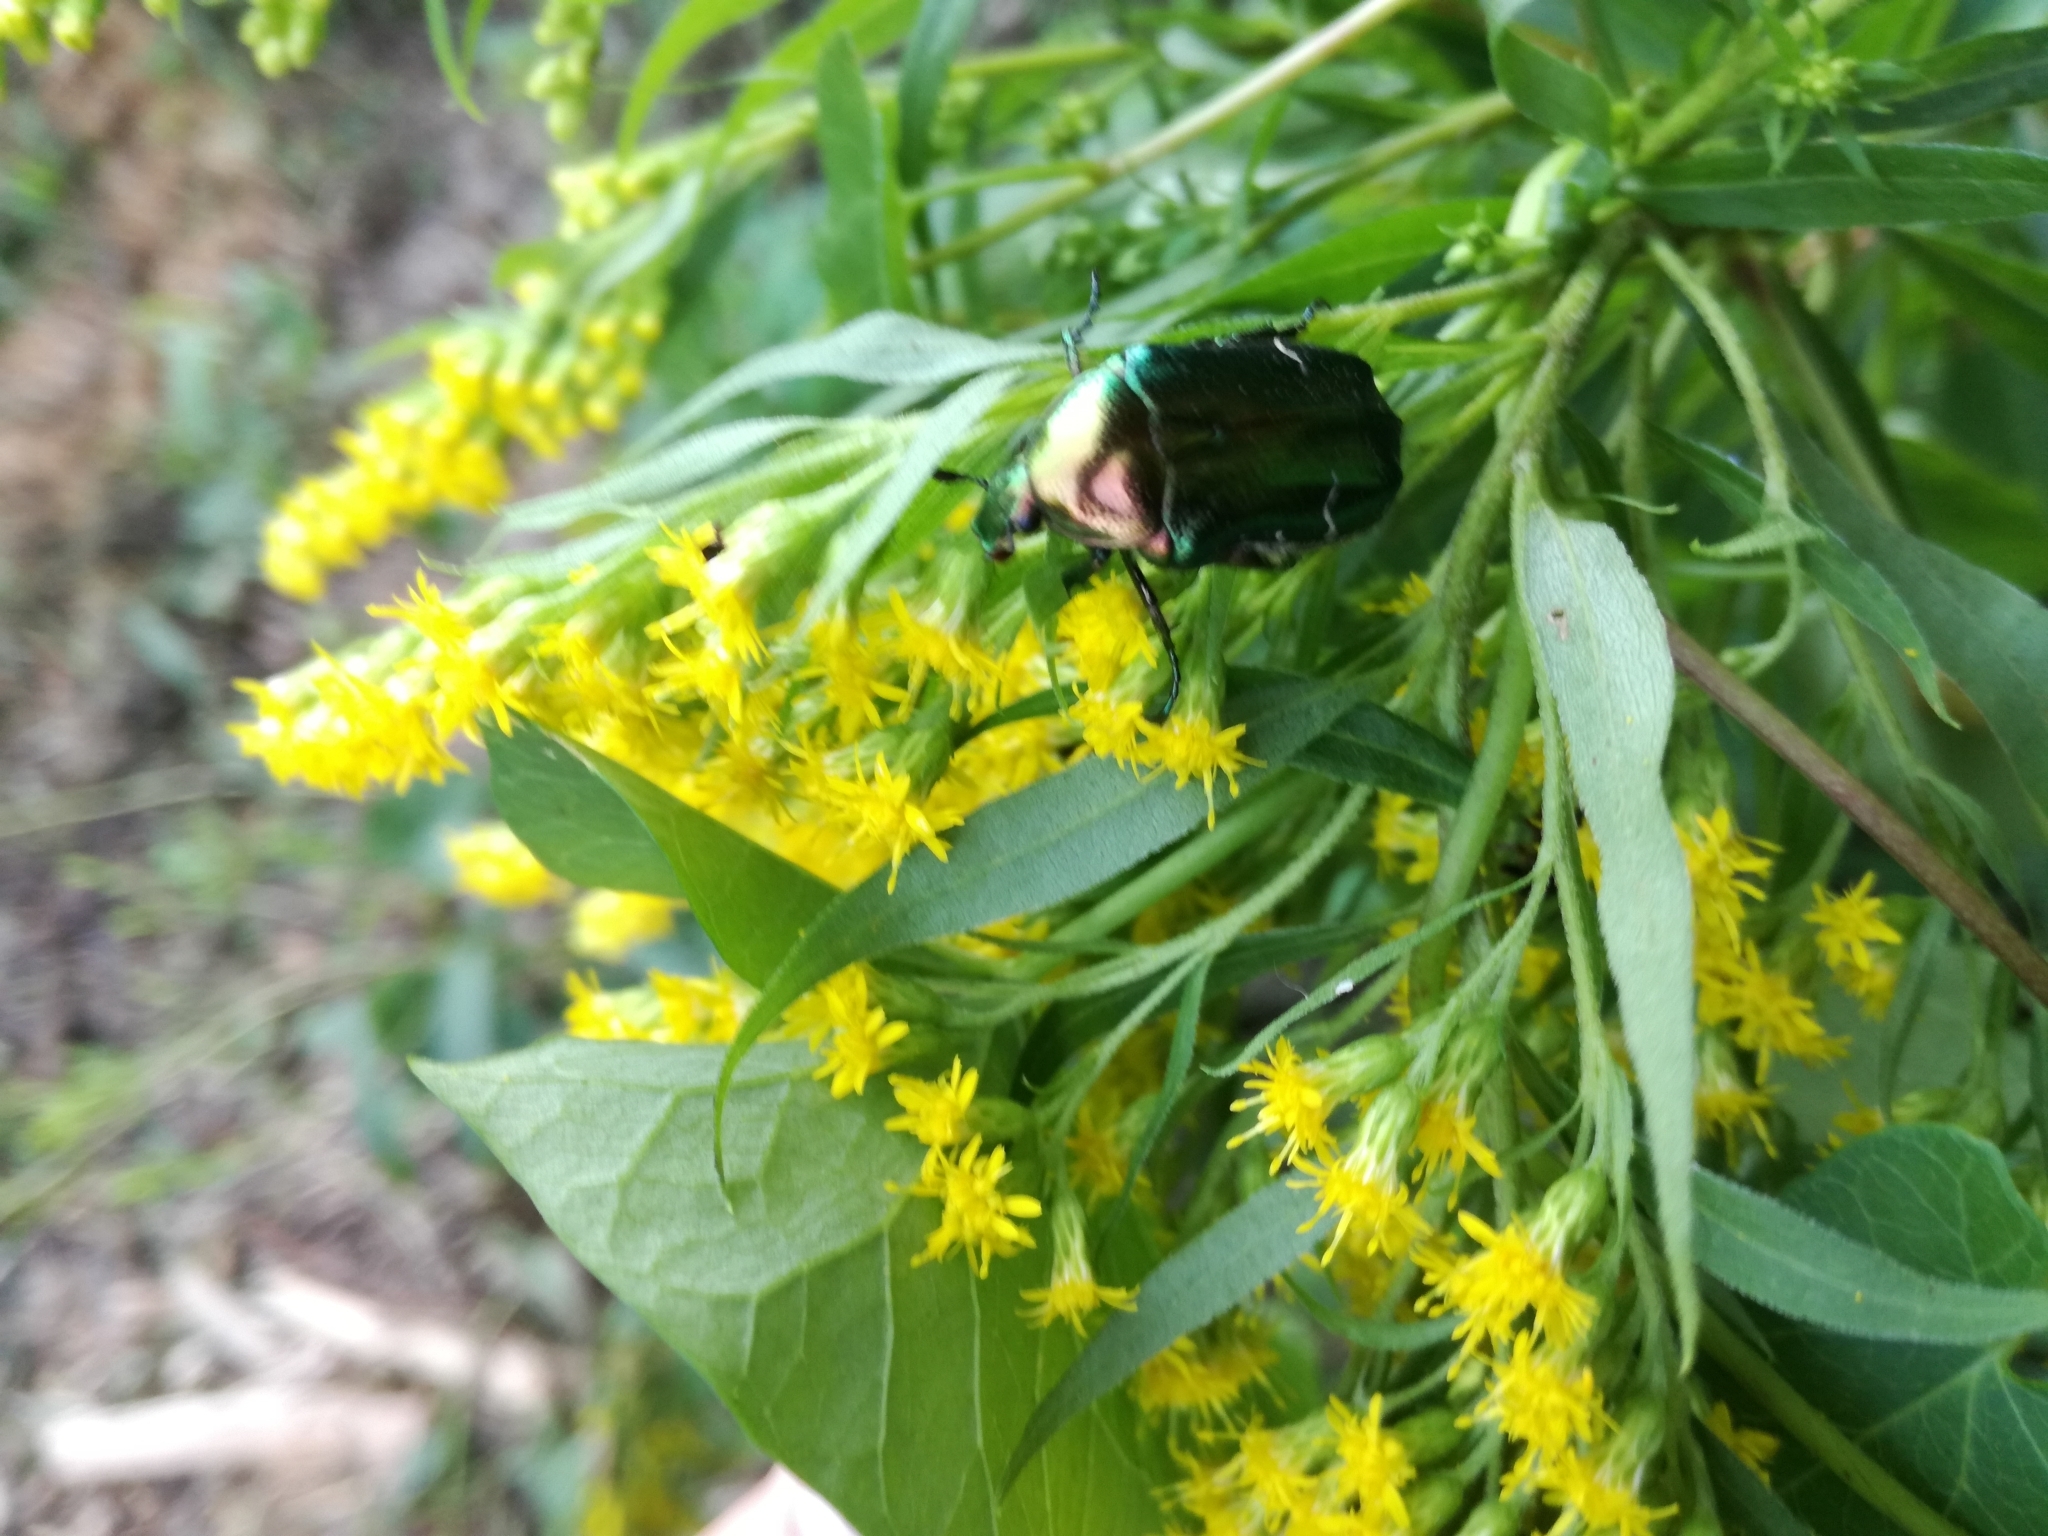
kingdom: Animalia
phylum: Arthropoda
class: Insecta
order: Coleoptera
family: Scarabaeidae
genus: Cetonia
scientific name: Cetonia aurata
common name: Rose chafer
